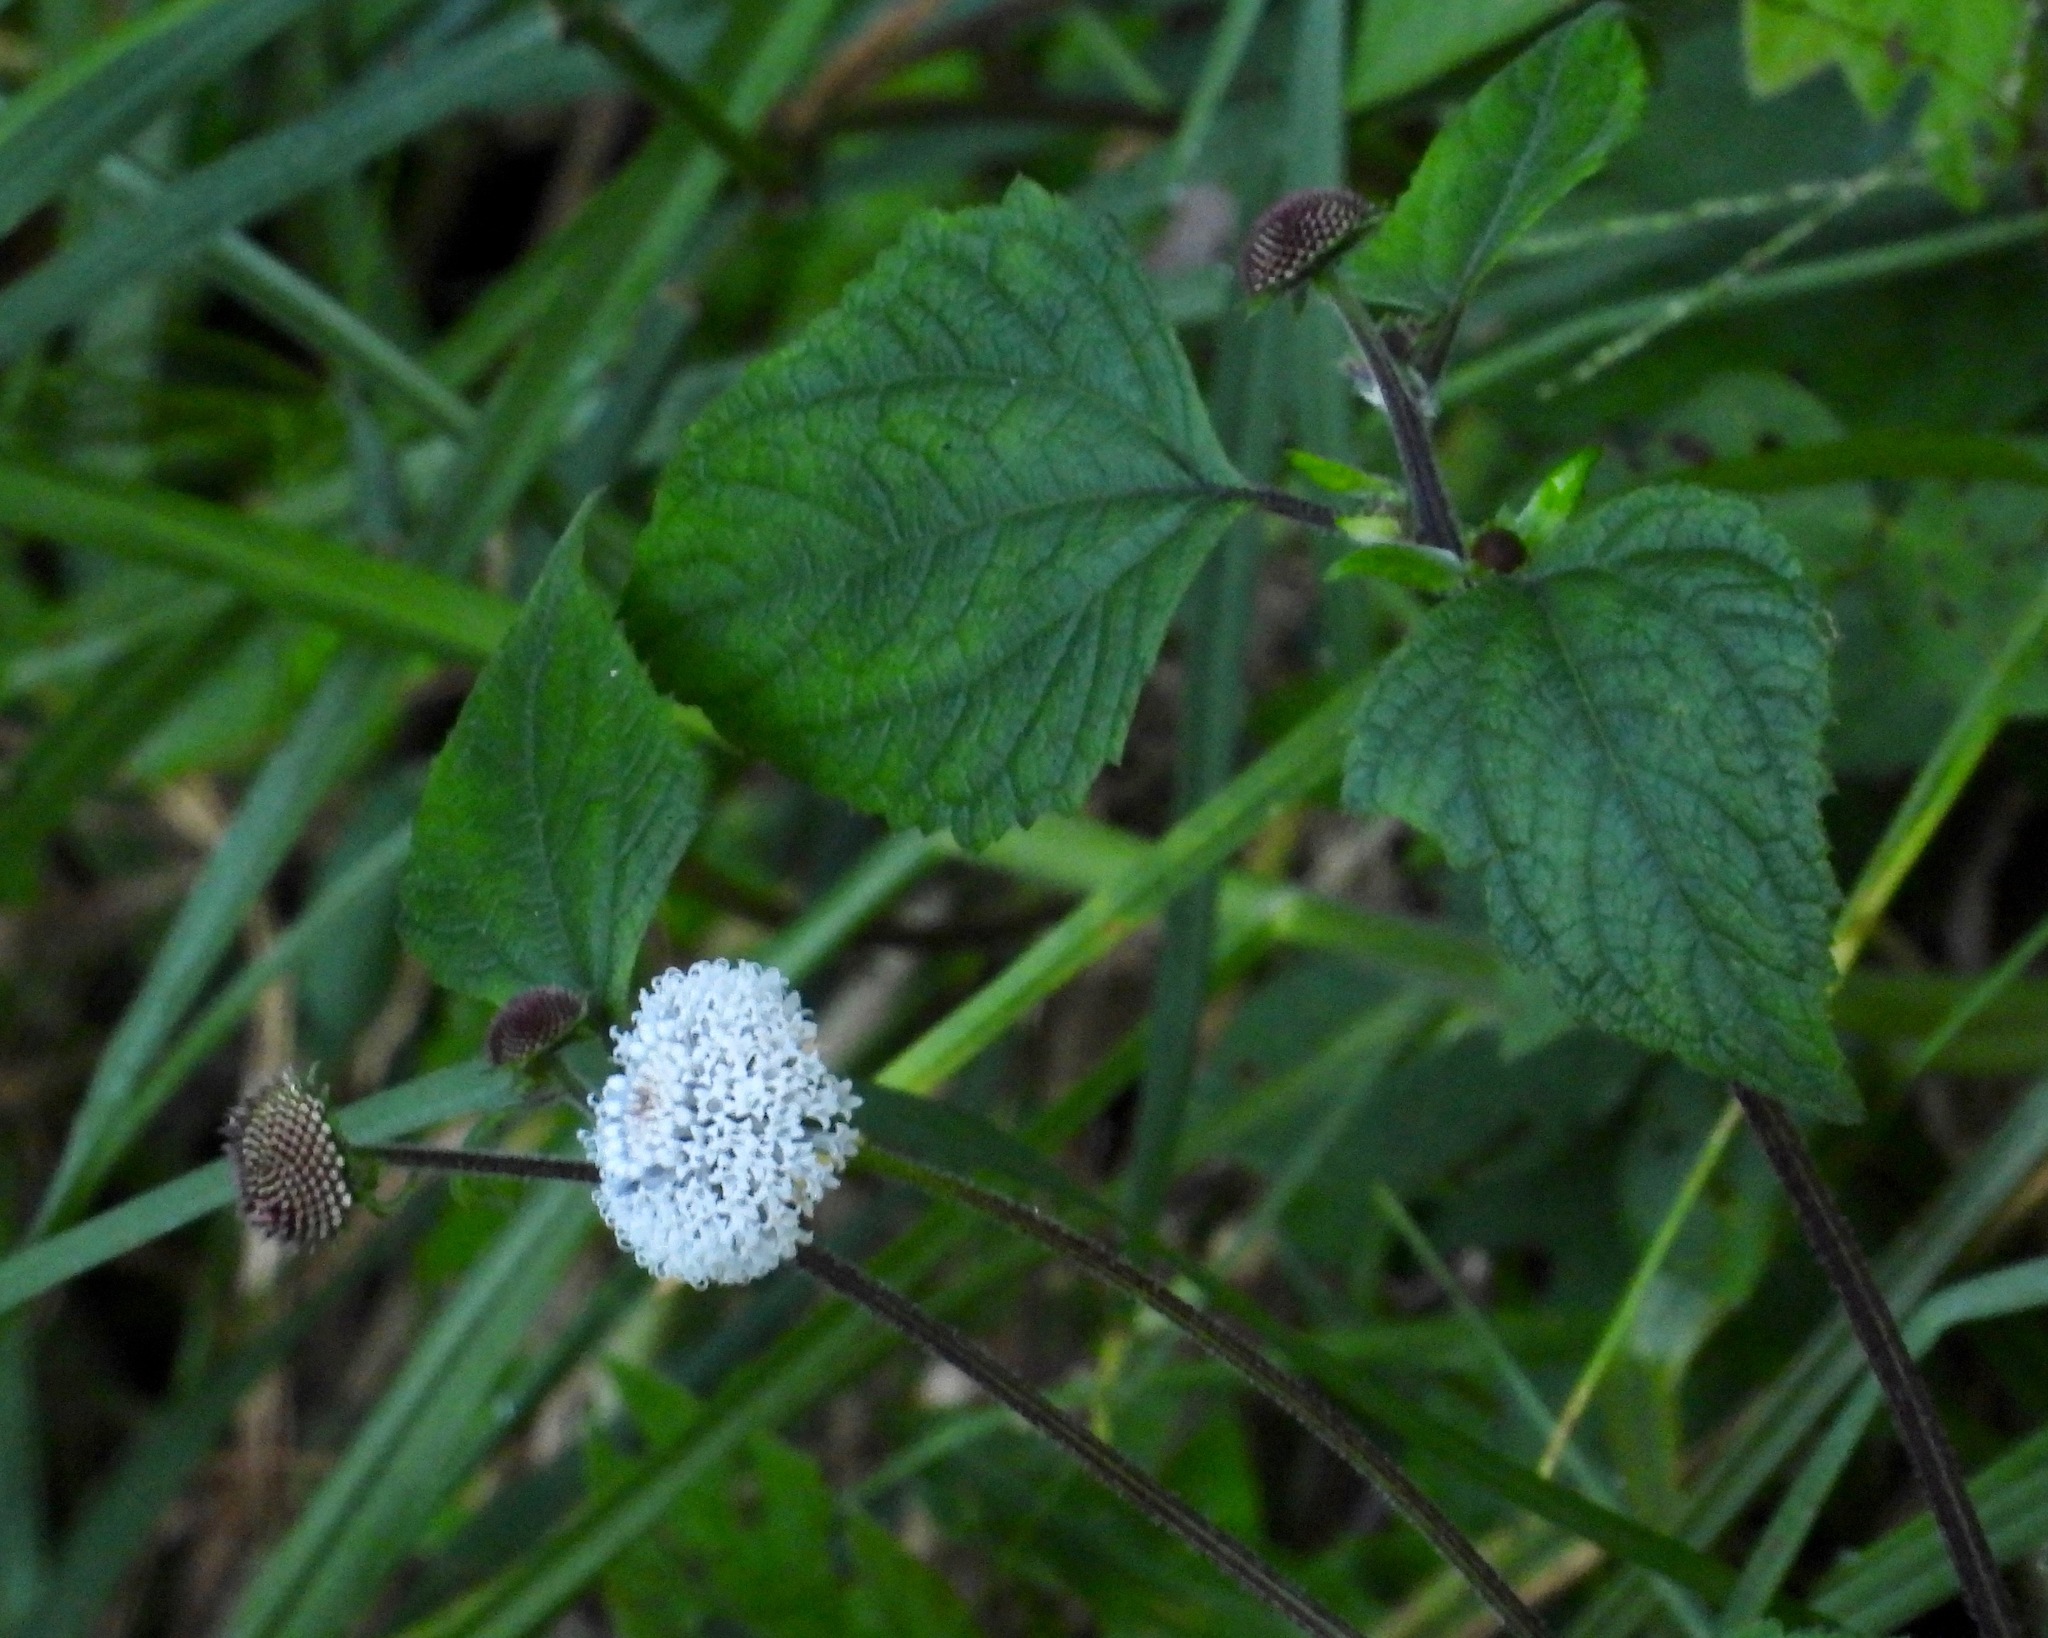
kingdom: Plantae
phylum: Tracheophyta
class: Magnoliopsida
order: Asterales
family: Asteraceae
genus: Melanthera
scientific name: Melanthera nivea
